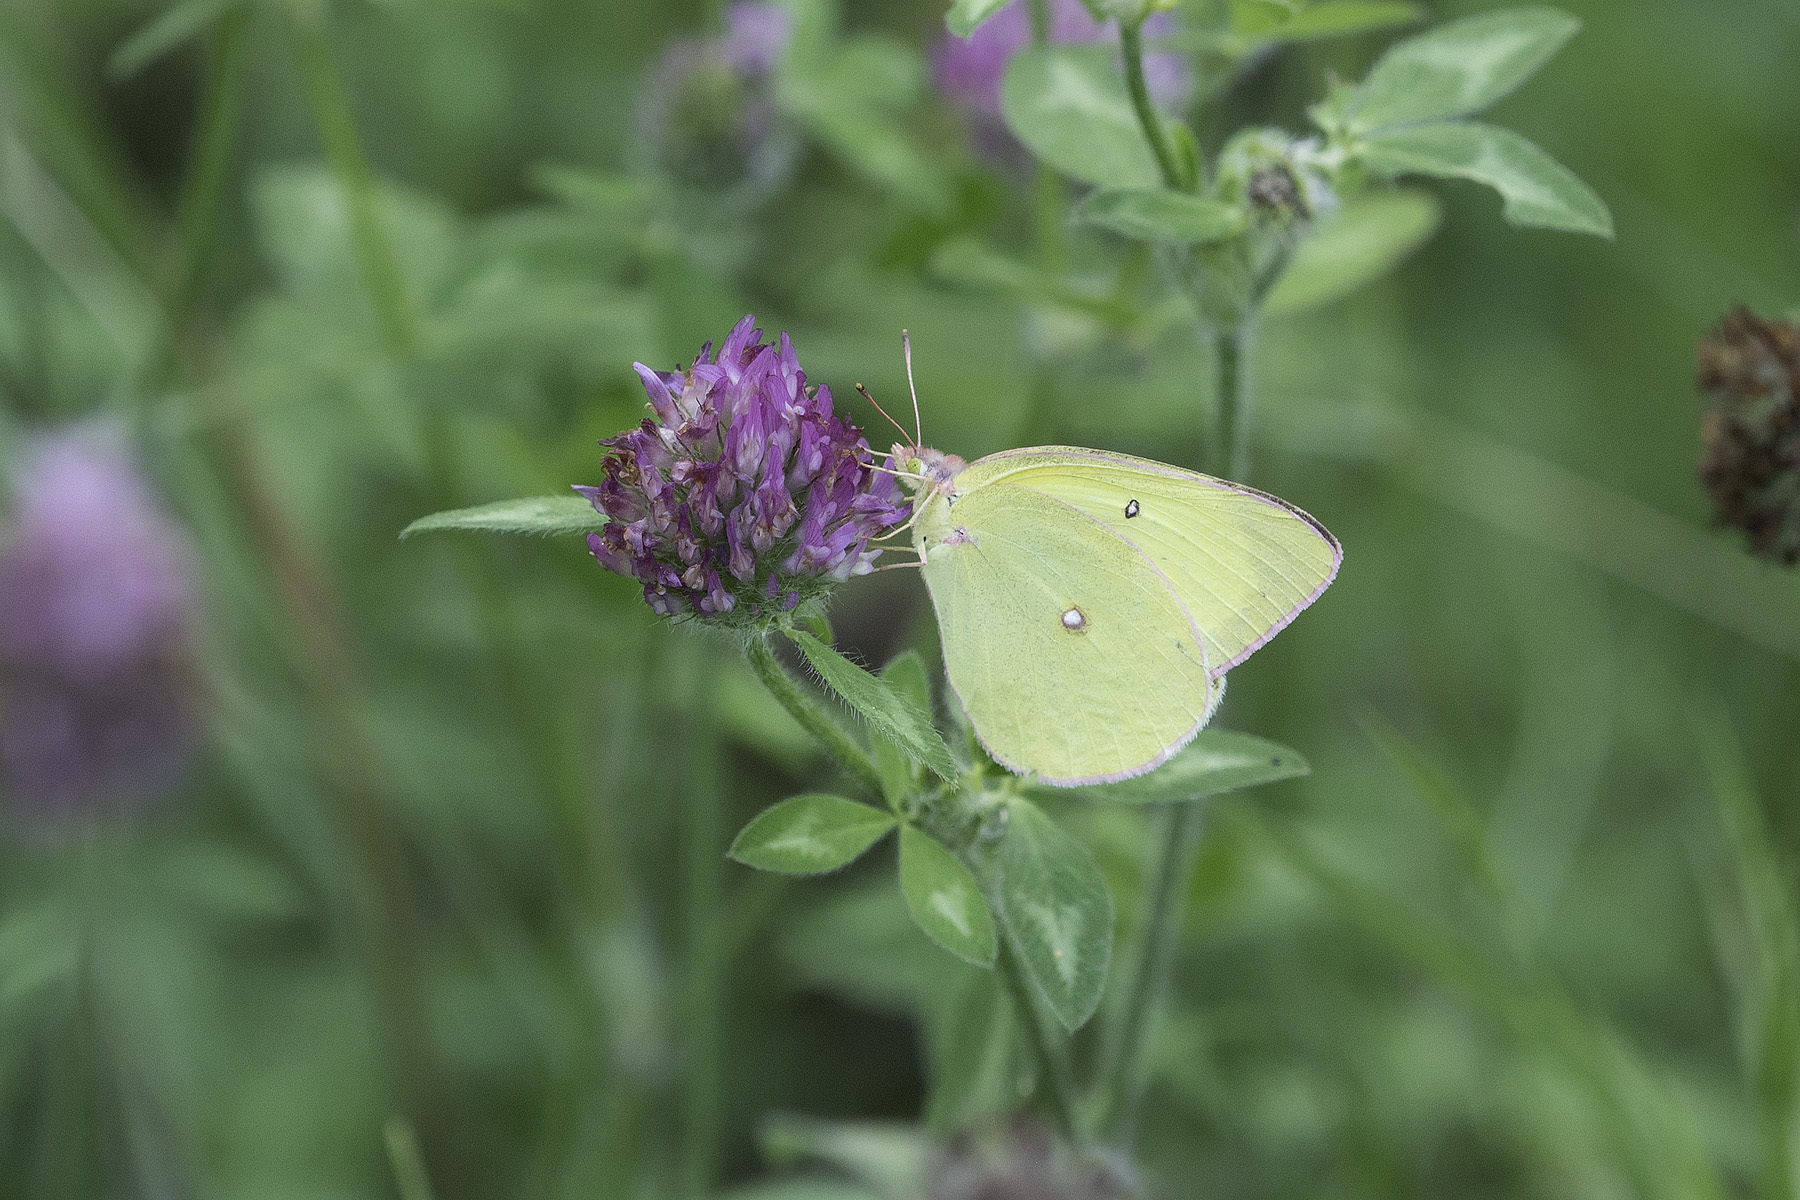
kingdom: Animalia
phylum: Arthropoda
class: Insecta
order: Lepidoptera
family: Pieridae
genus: Colias
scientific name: Colias interior
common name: Pink-edged sulphur
